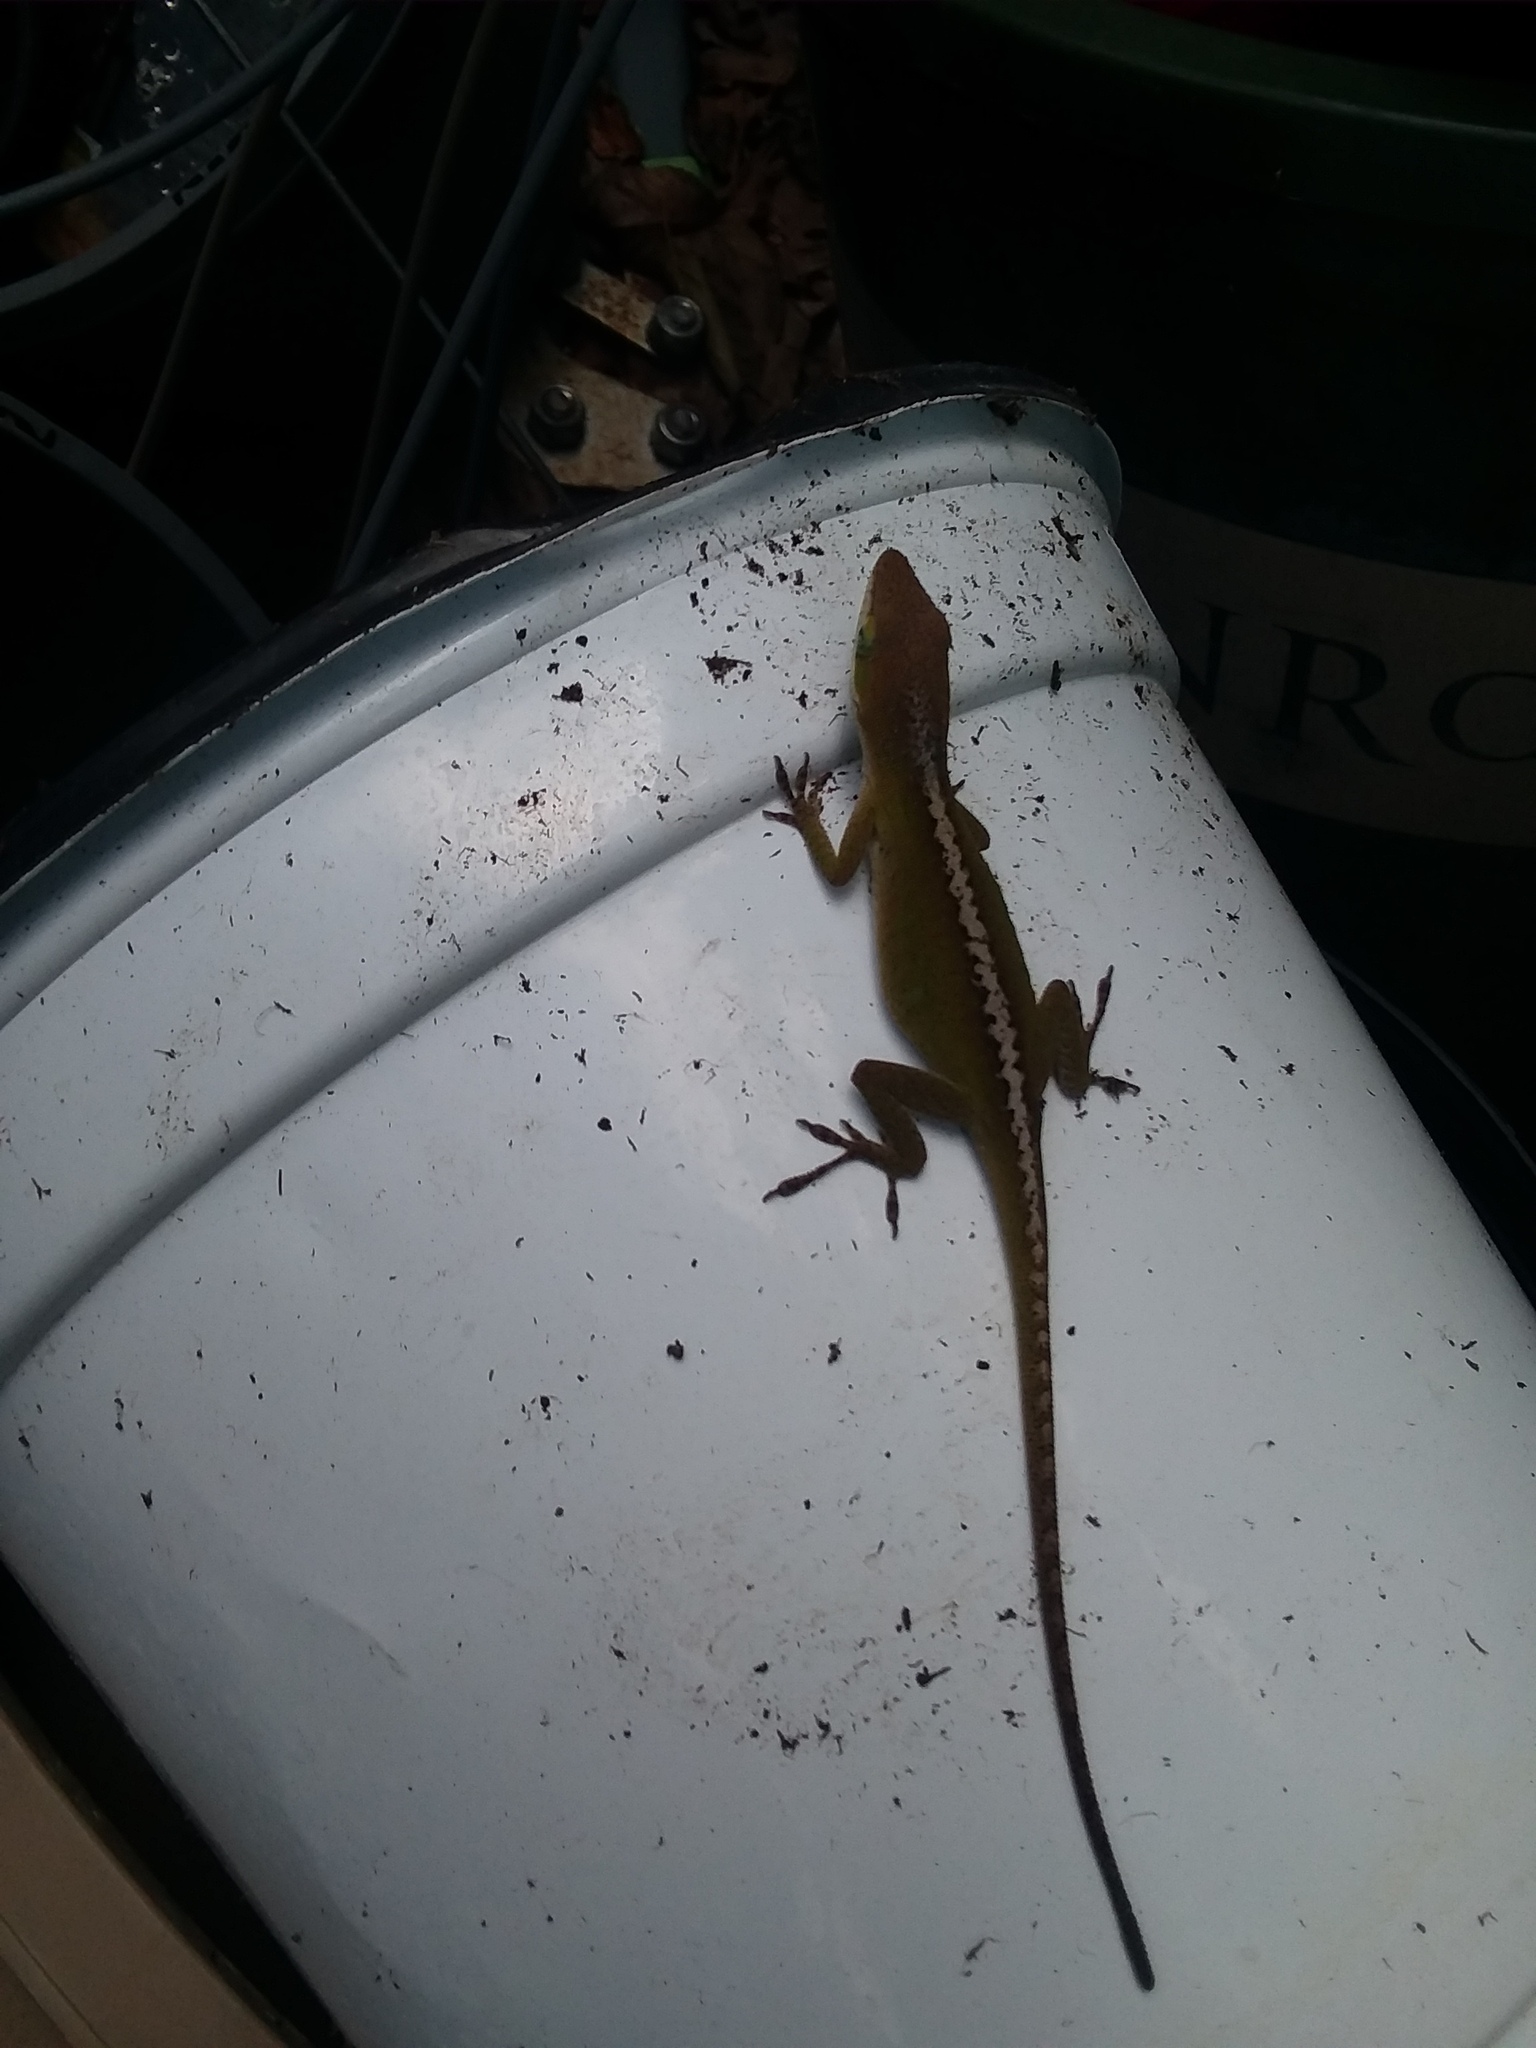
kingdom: Animalia
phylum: Chordata
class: Squamata
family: Dactyloidae
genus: Anolis
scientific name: Anolis carolinensis
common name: Green anole
